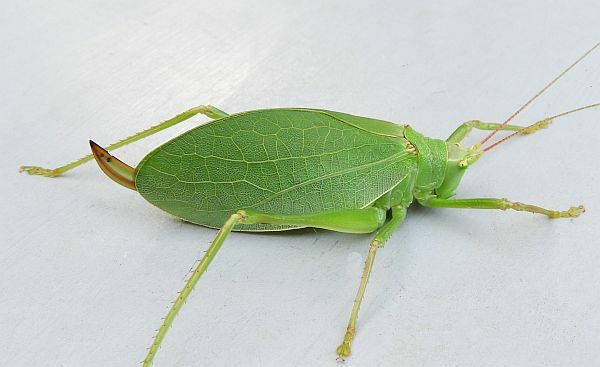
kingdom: Animalia
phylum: Arthropoda
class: Insecta
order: Orthoptera
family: Tettigoniidae
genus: Pterophylla
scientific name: Pterophylla camellifolia
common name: Common true katydid
